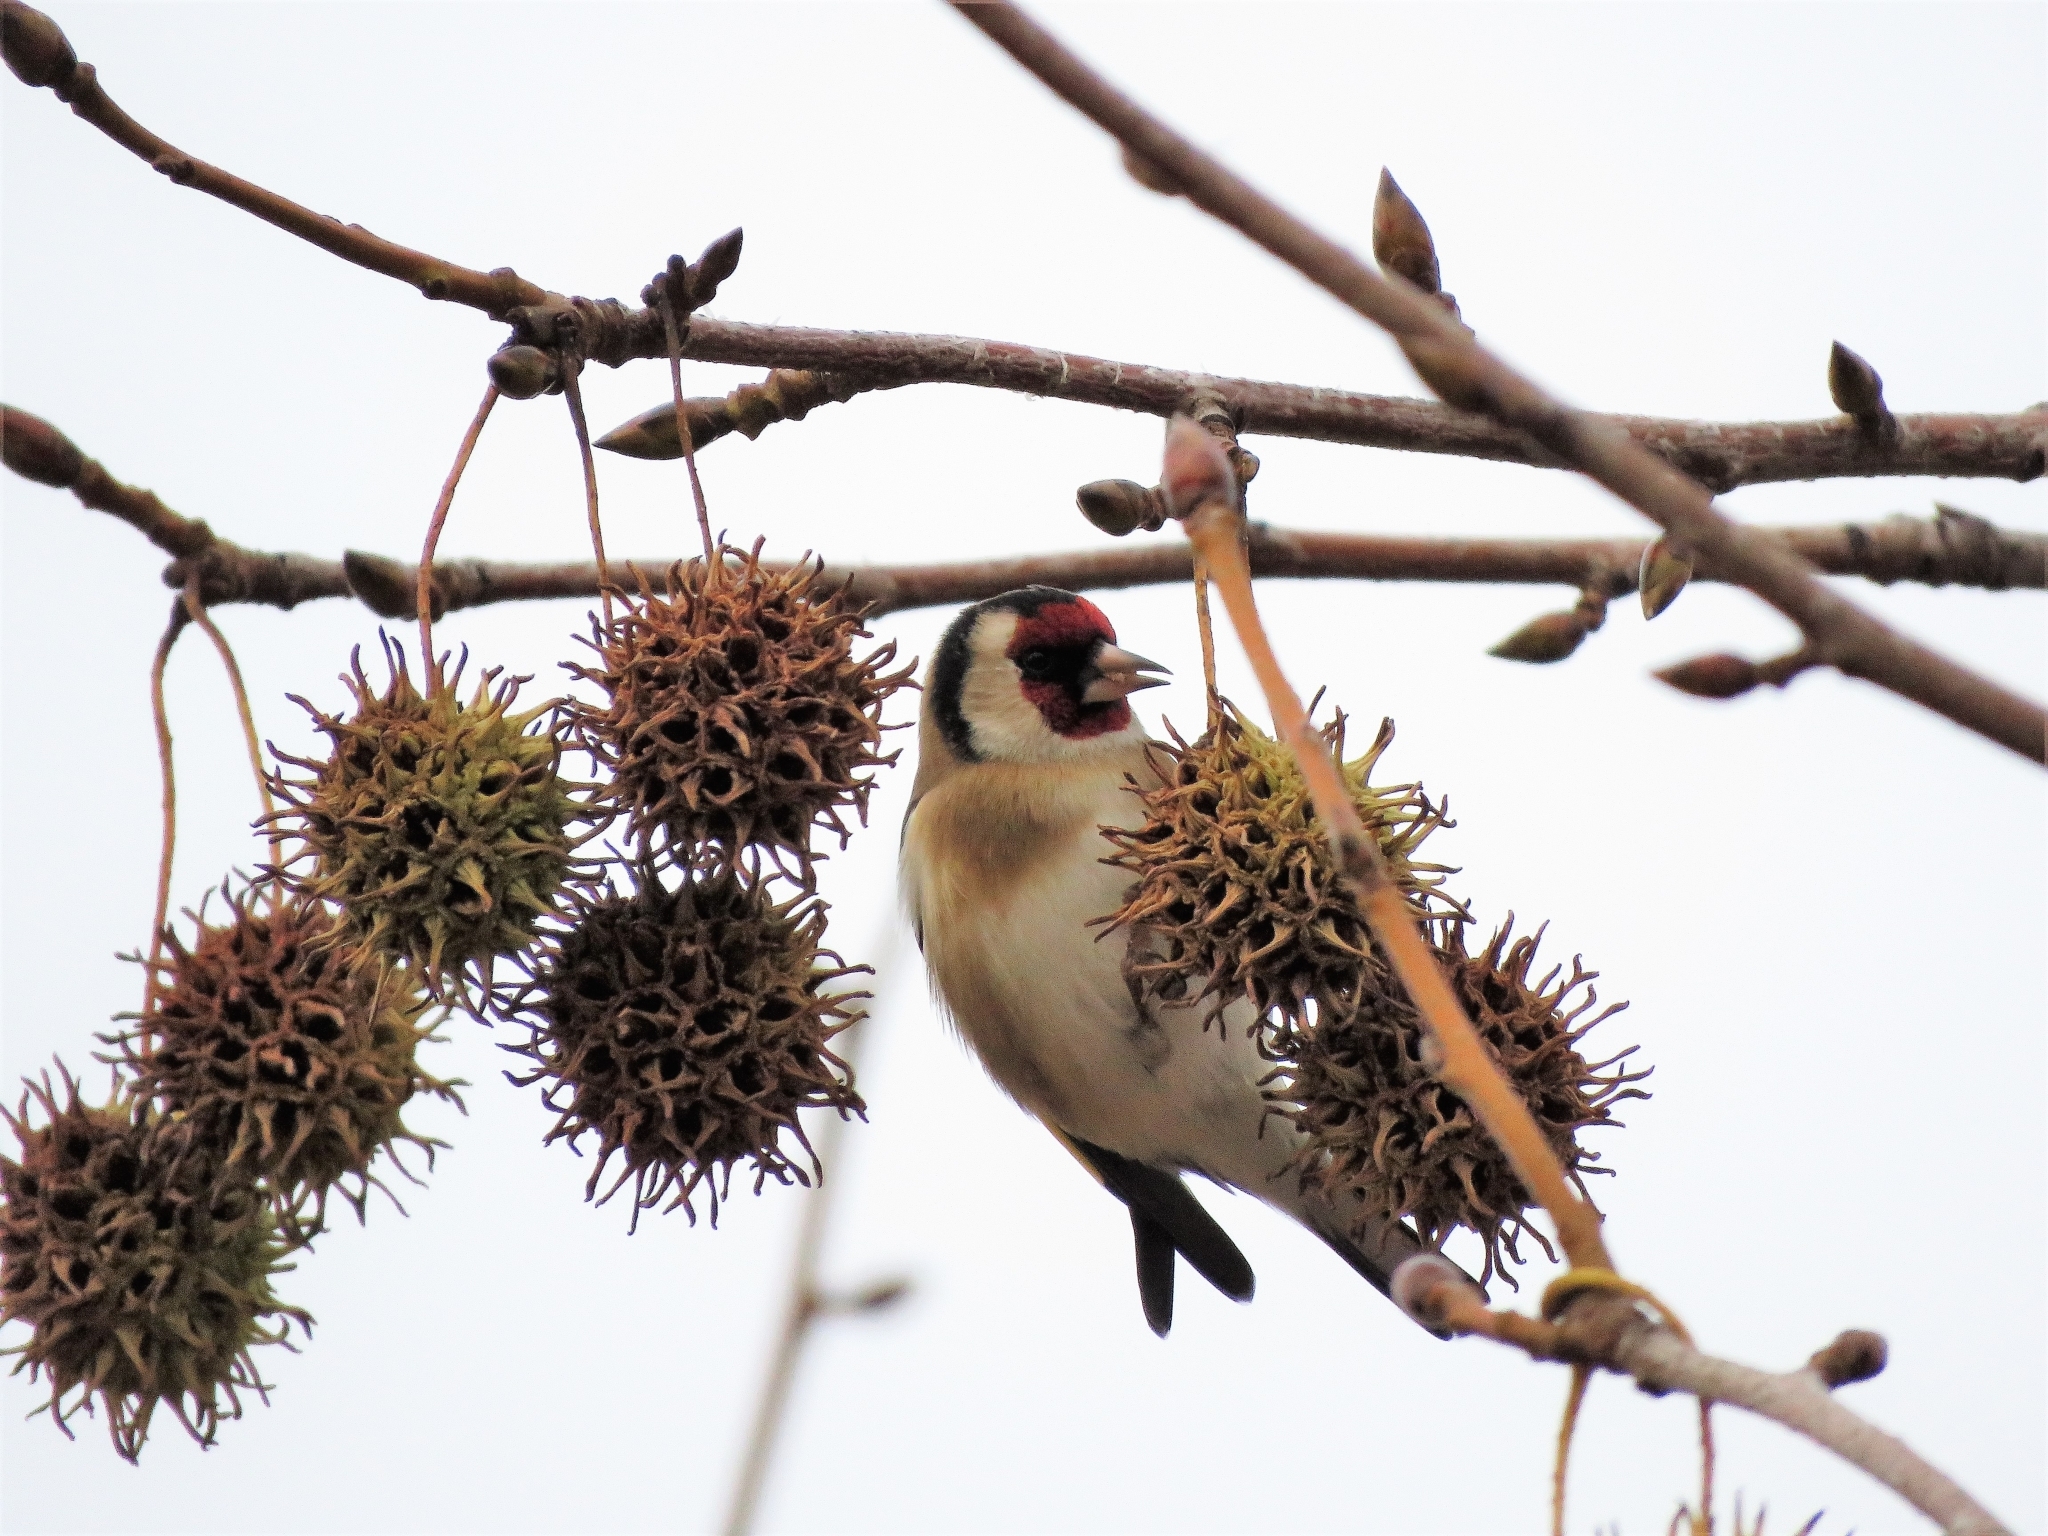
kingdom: Animalia
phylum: Chordata
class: Aves
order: Passeriformes
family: Fringillidae
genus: Carduelis
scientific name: Carduelis carduelis
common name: European goldfinch
